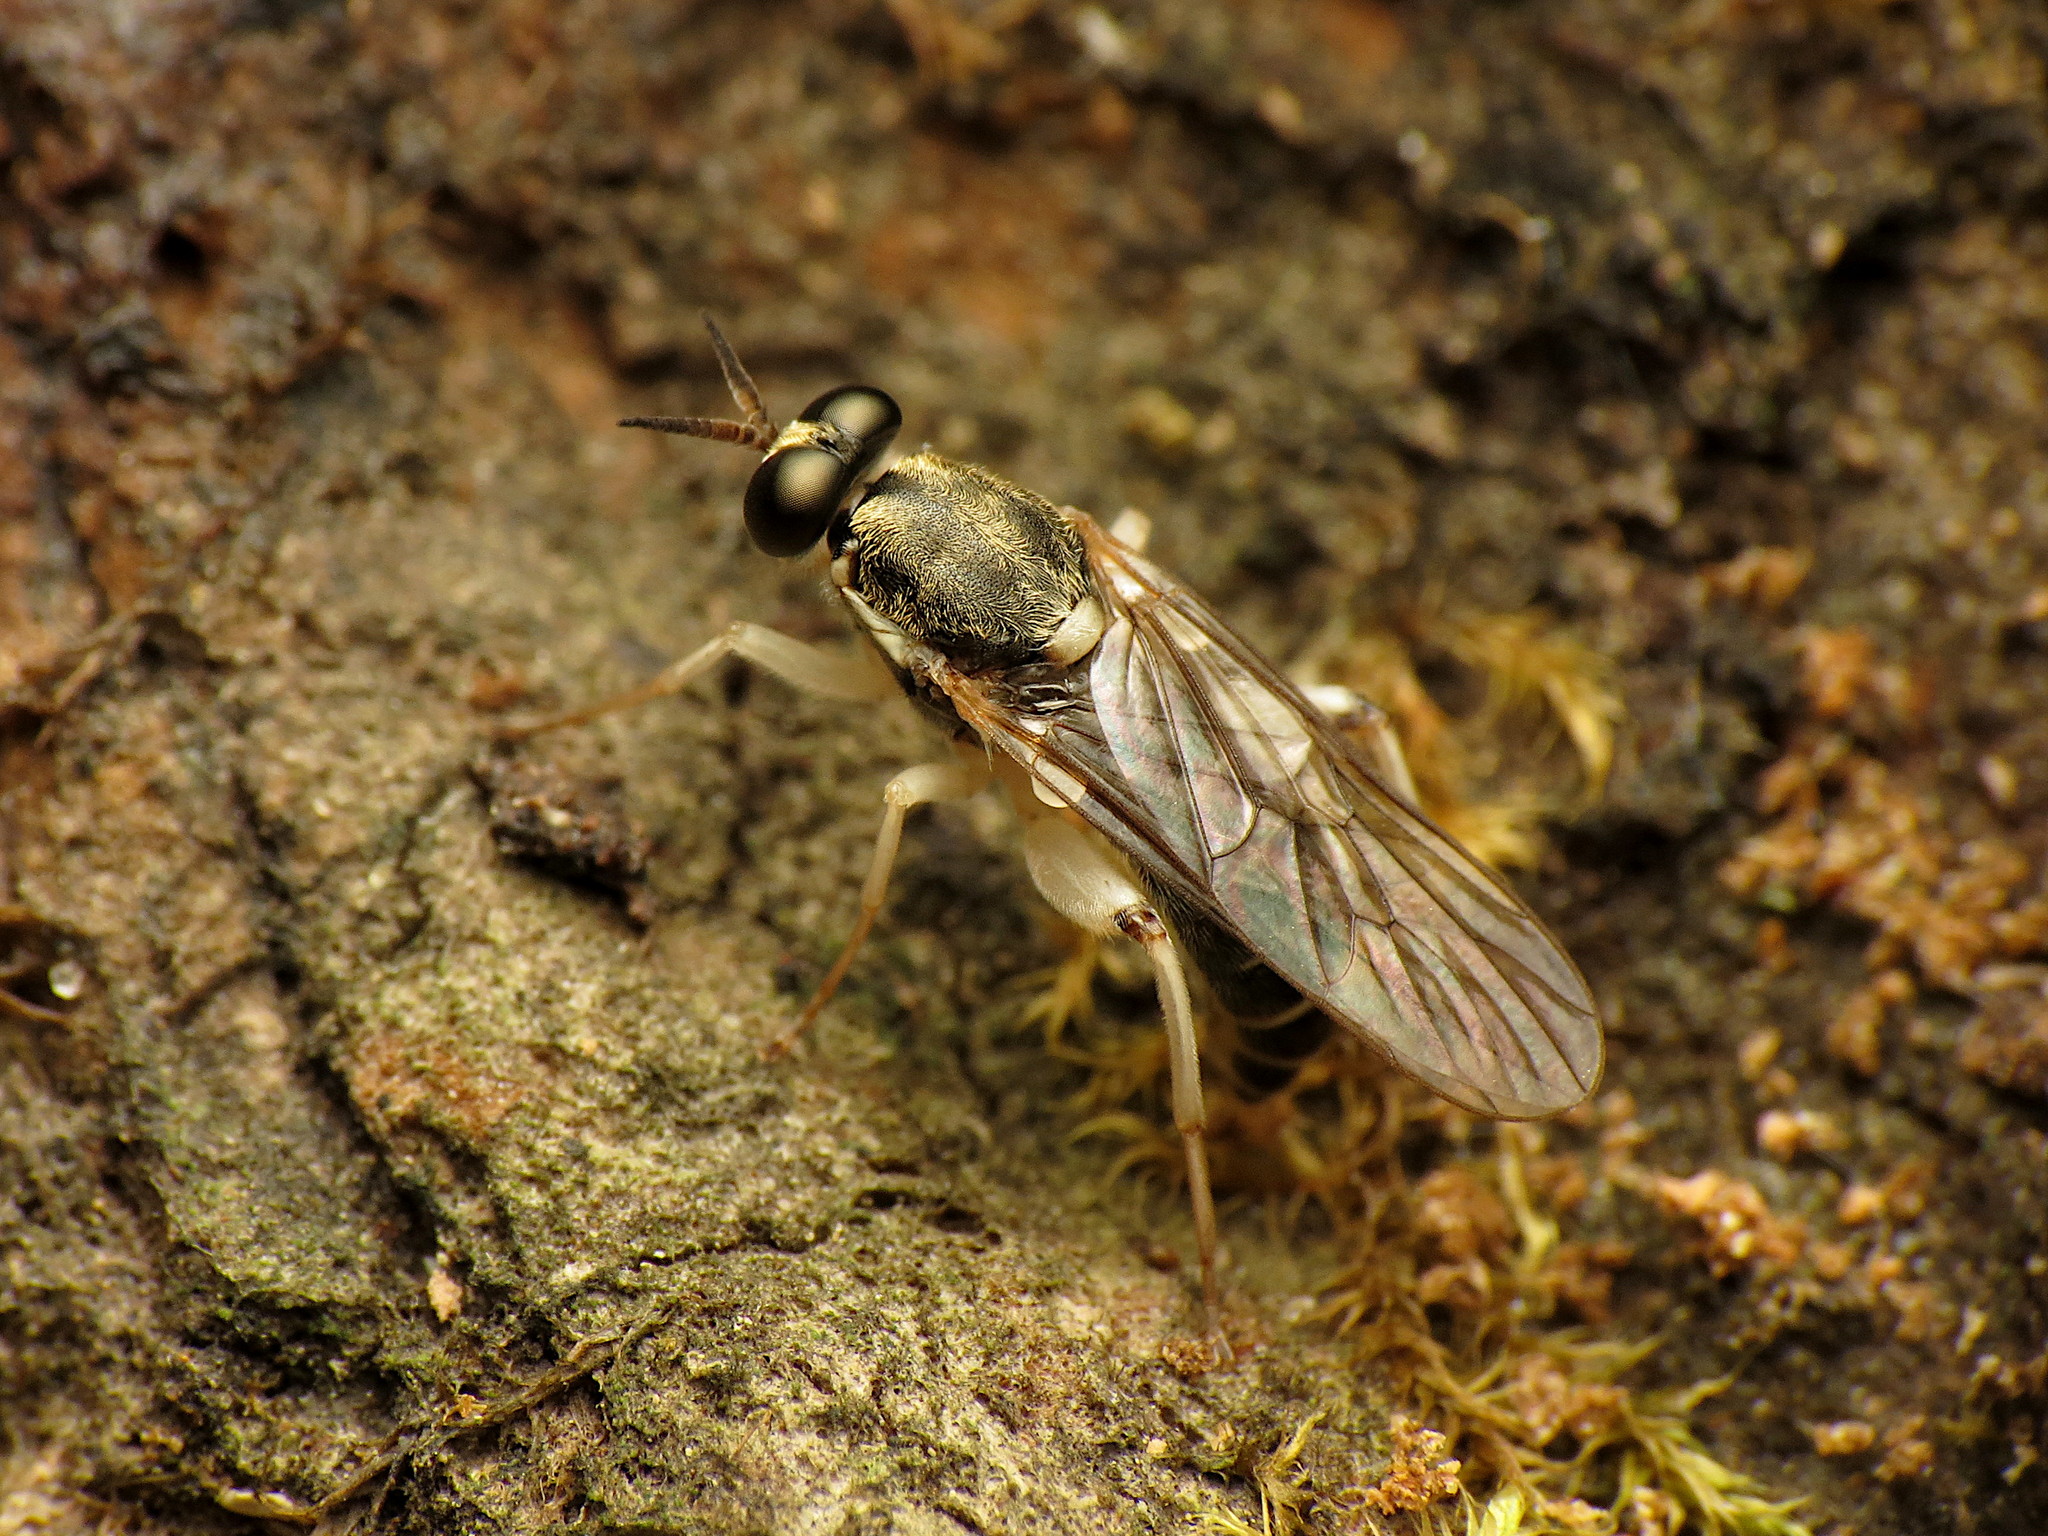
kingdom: Animalia
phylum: Arthropoda
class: Insecta
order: Diptera
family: Xylomyidae
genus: Solva
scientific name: Solva pallipes
